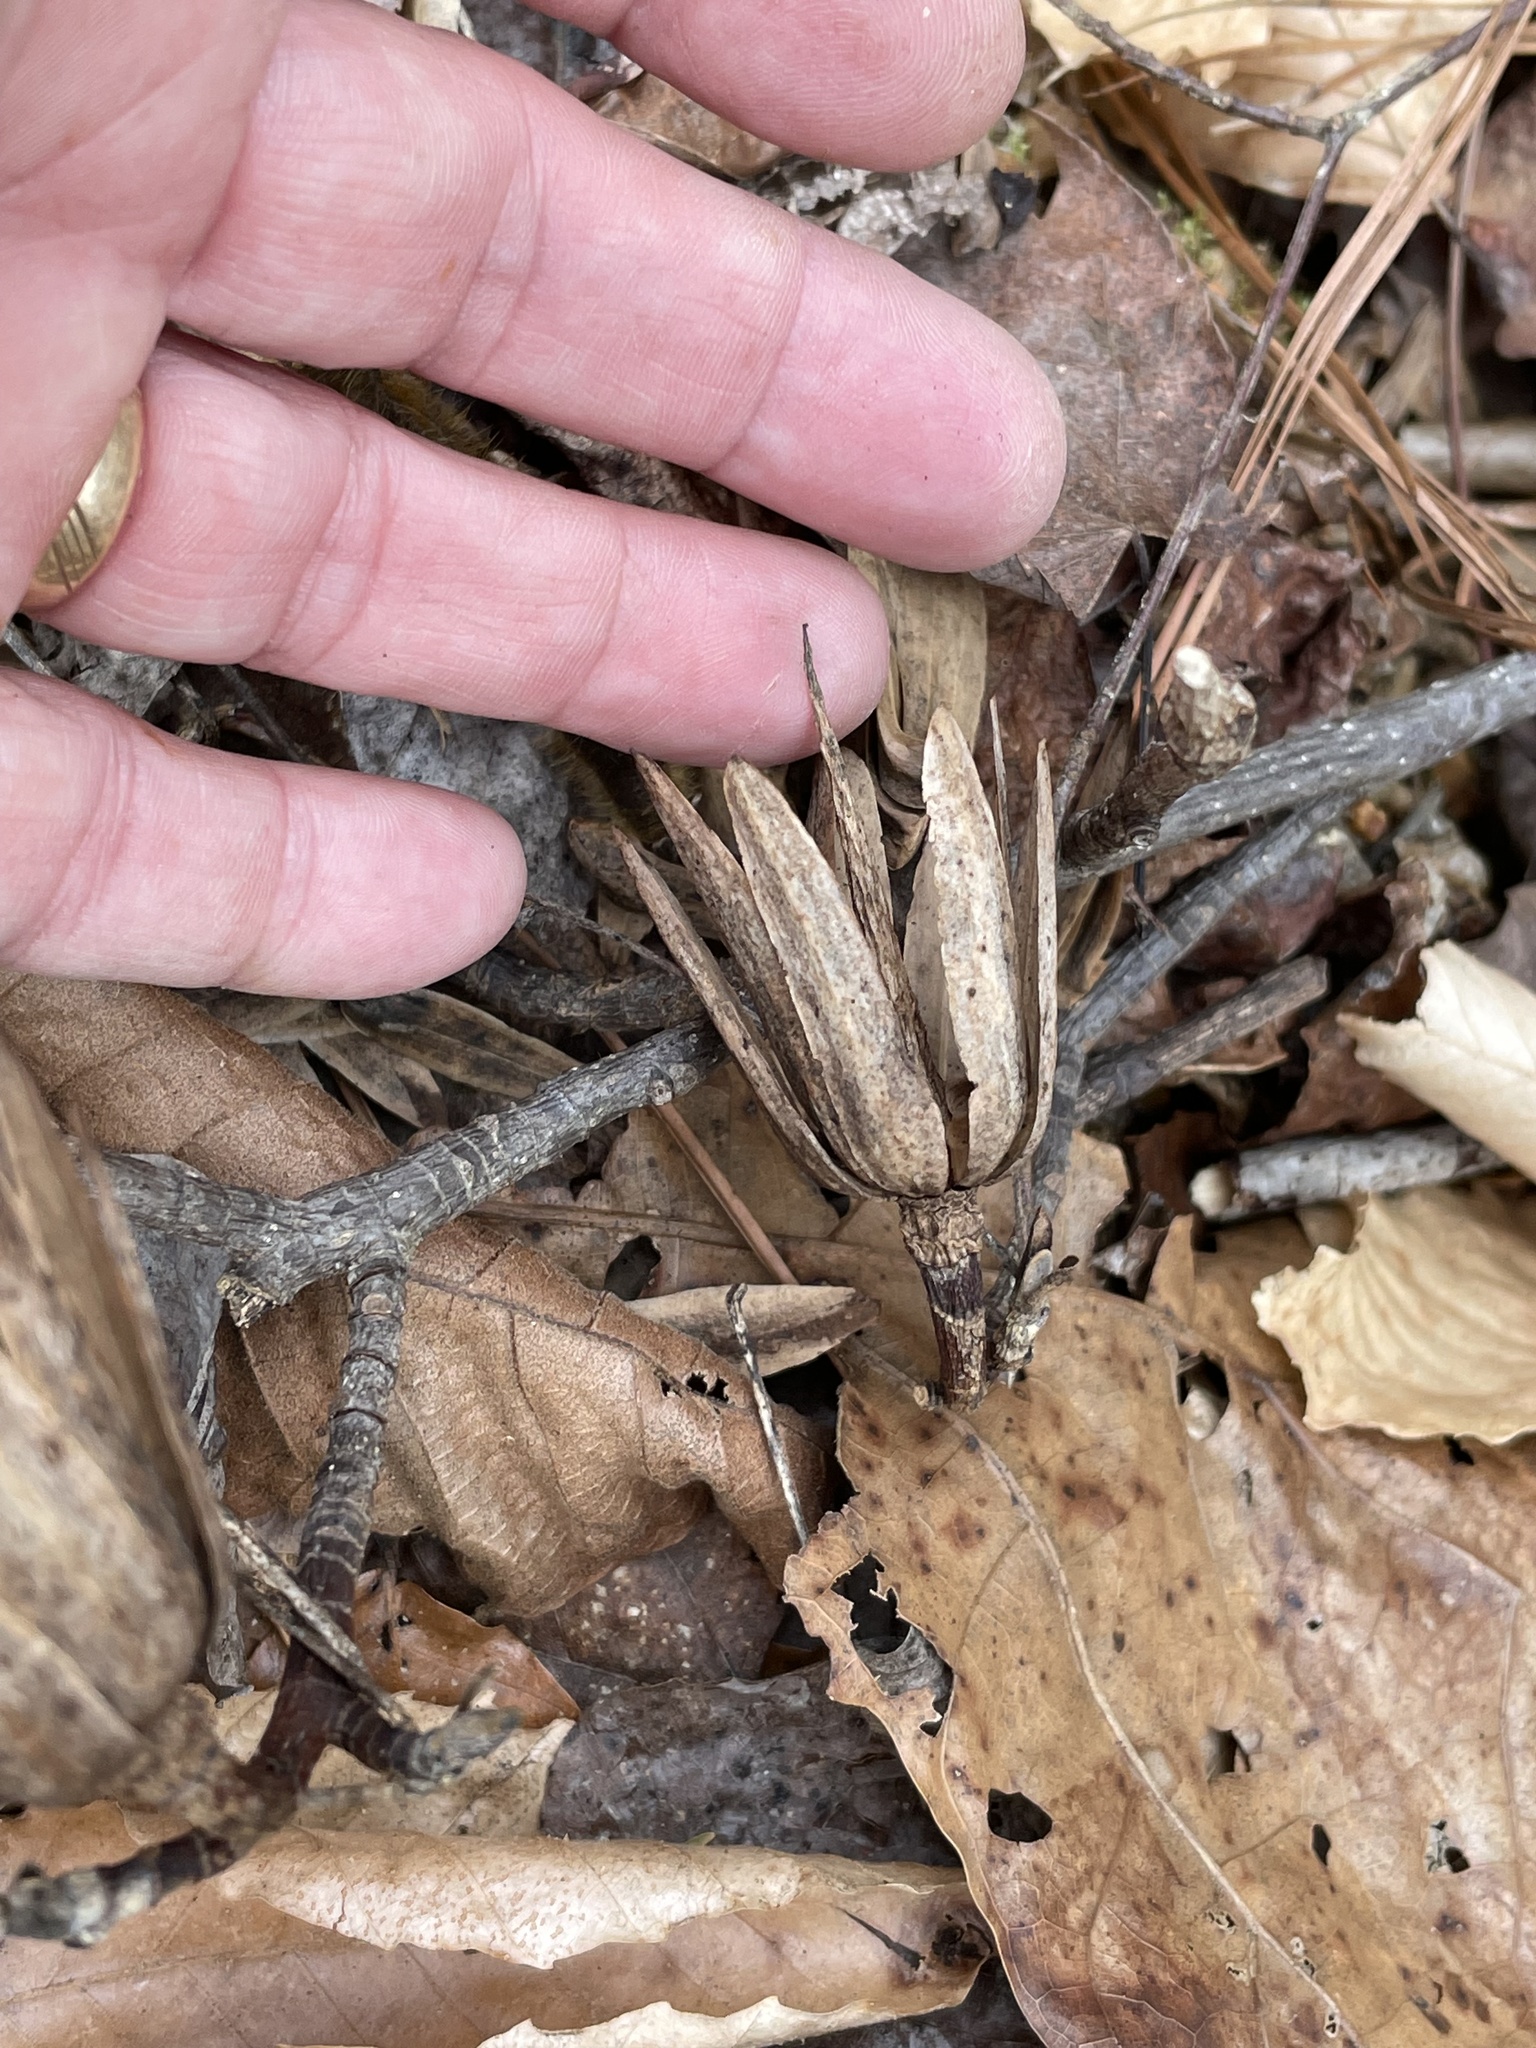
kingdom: Plantae
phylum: Tracheophyta
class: Magnoliopsida
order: Magnoliales
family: Magnoliaceae
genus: Liriodendron
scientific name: Liriodendron tulipifera
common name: Tulip tree
